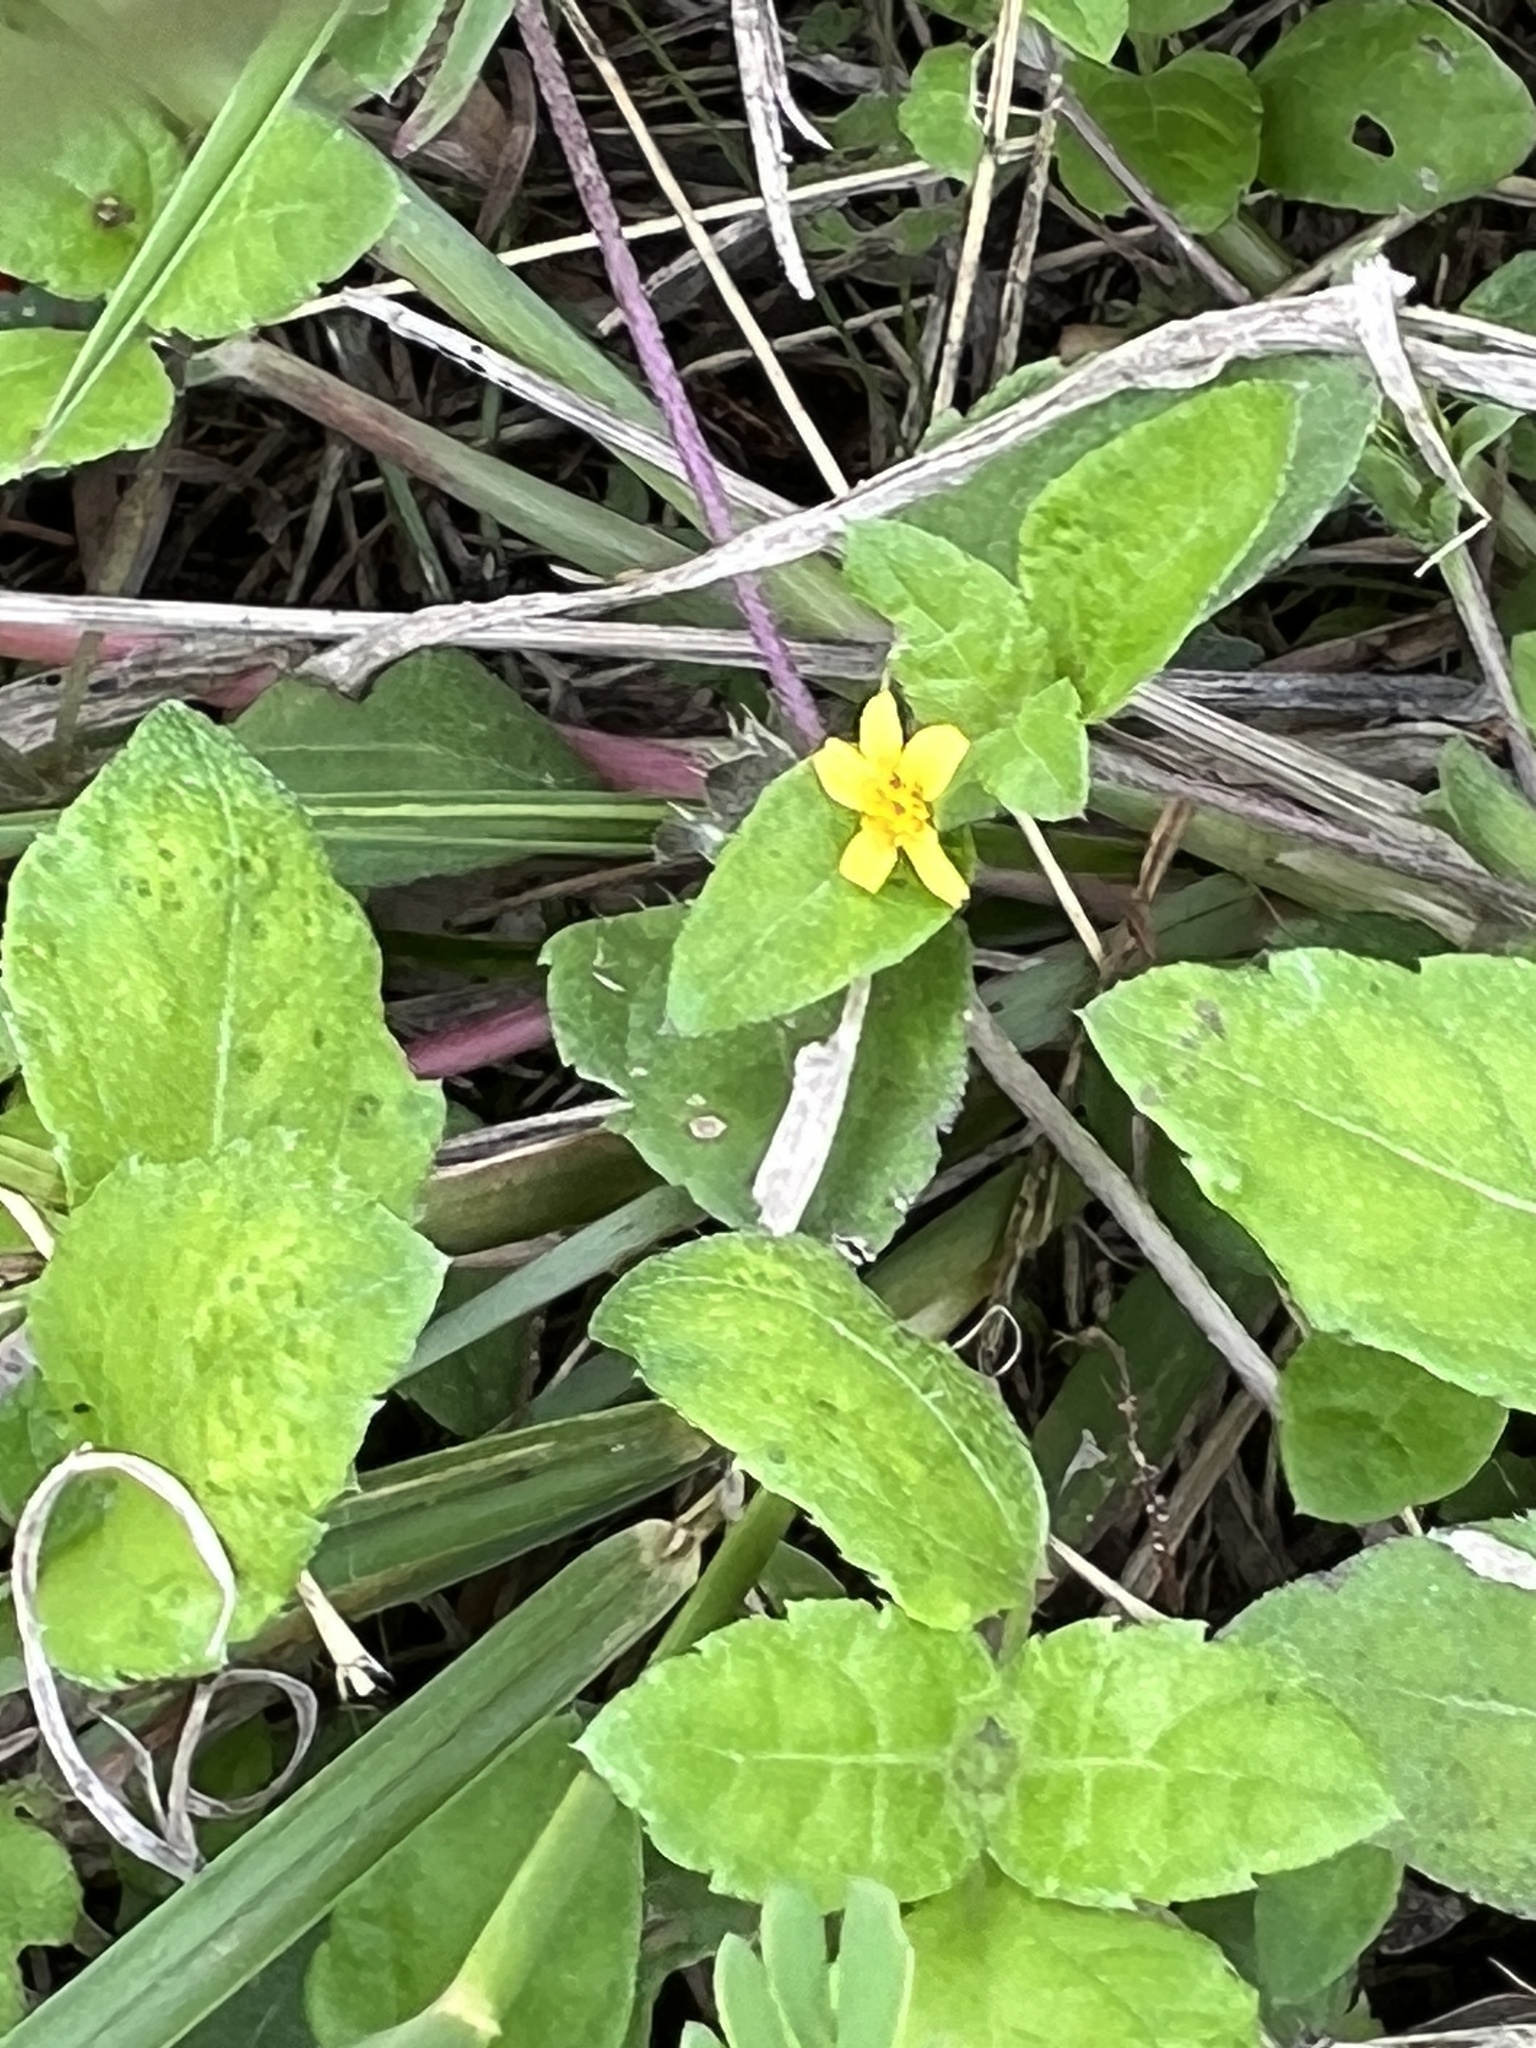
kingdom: Plantae
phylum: Tracheophyta
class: Magnoliopsida
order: Asterales
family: Asteraceae
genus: Calyptocarpus
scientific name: Calyptocarpus vialis
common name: Straggler daisy
